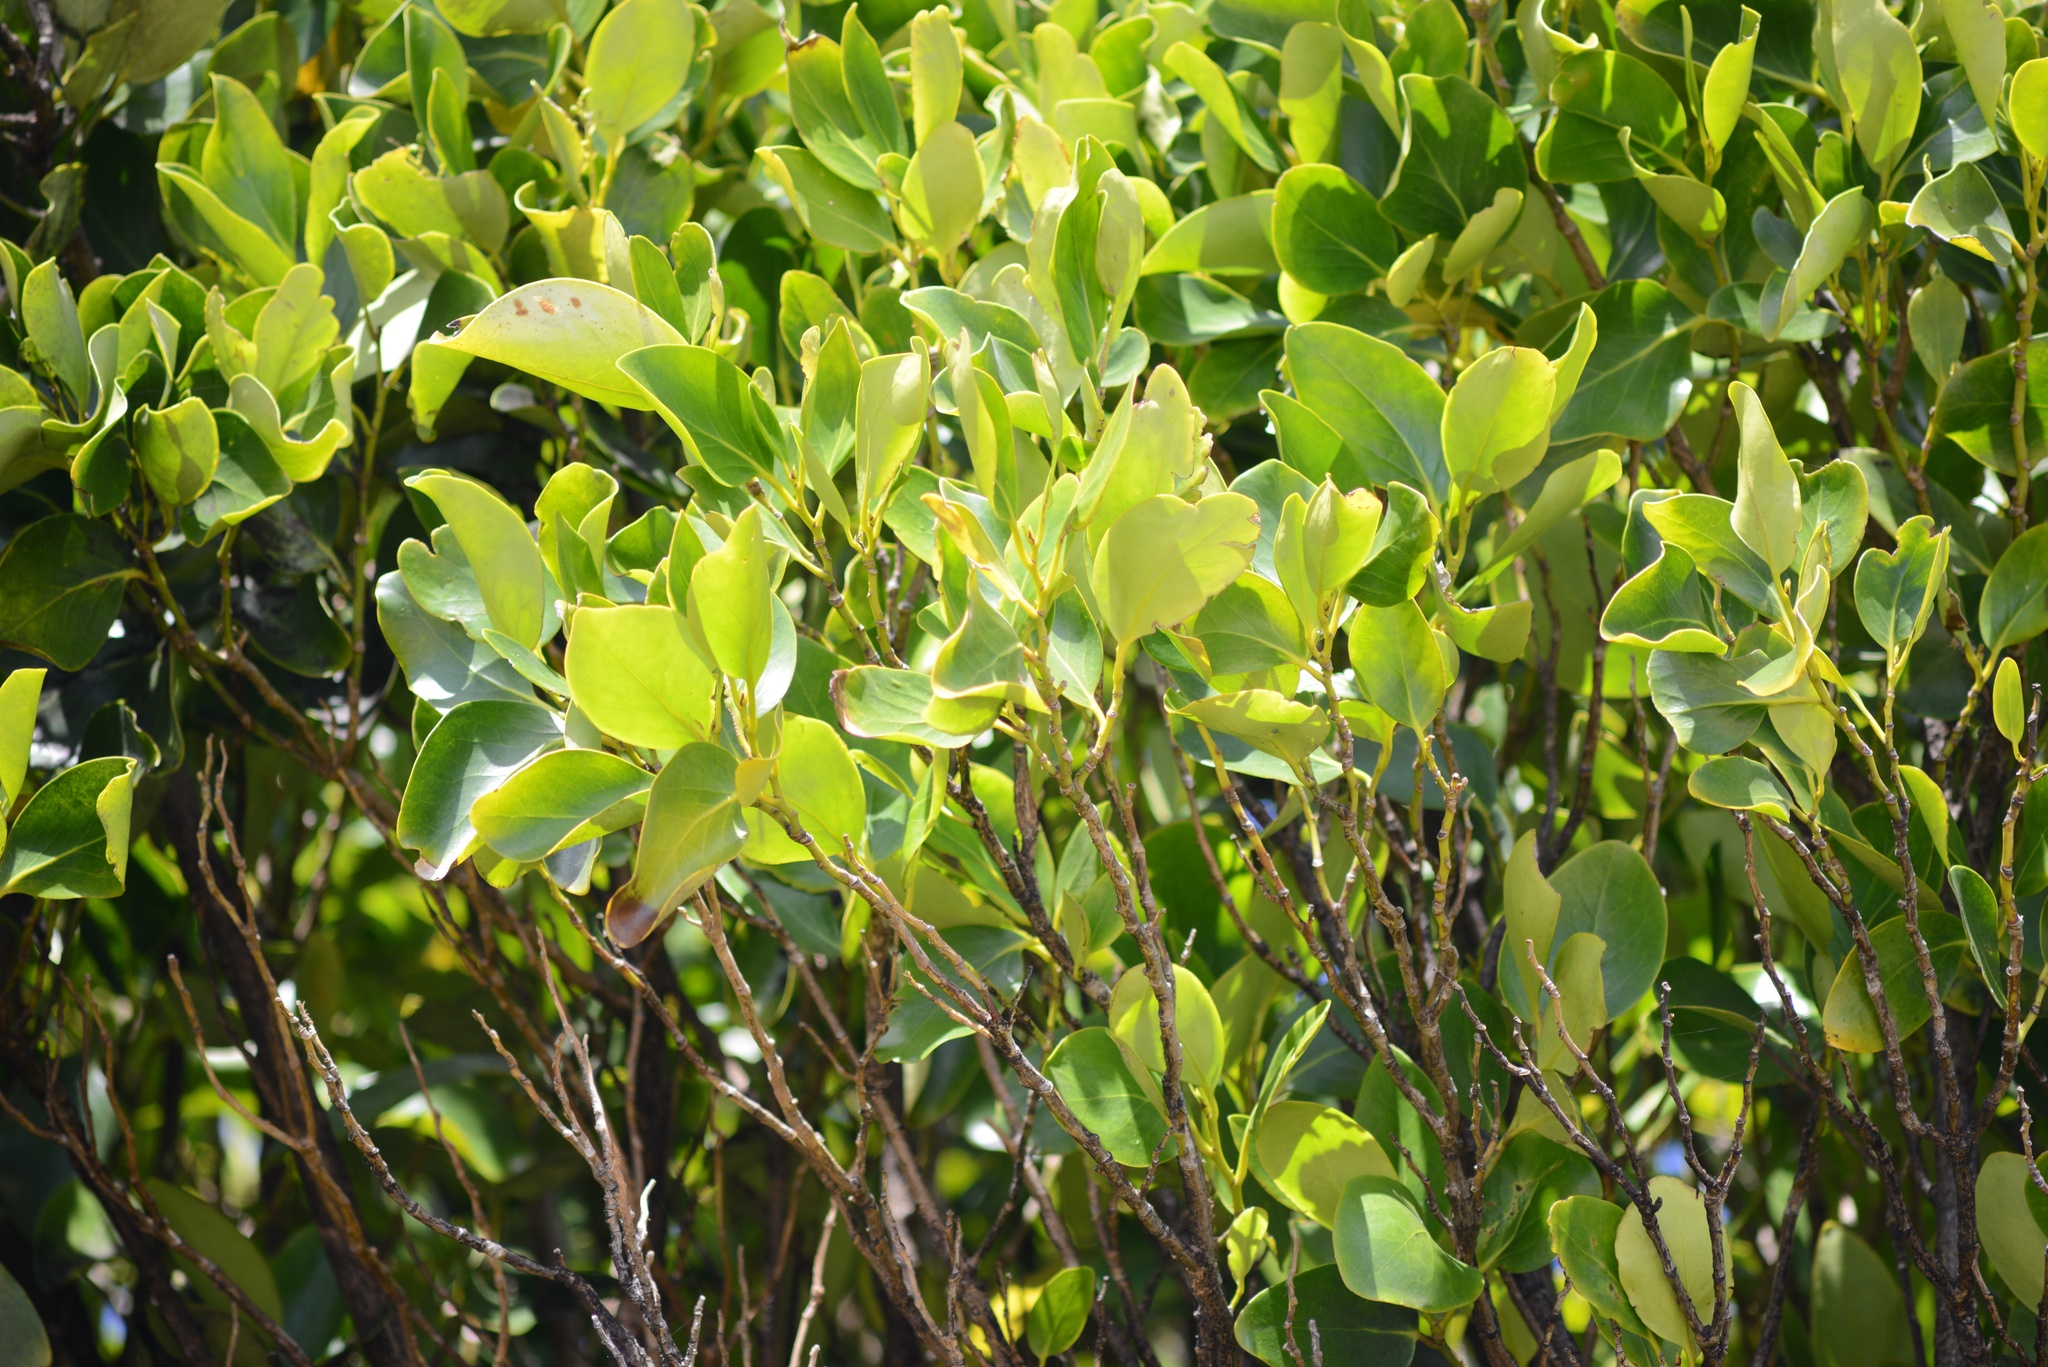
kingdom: Plantae
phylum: Tracheophyta
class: Magnoliopsida
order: Apiales
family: Griseliniaceae
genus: Griselinia
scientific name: Griselinia littoralis
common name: New zealand broadleaf
